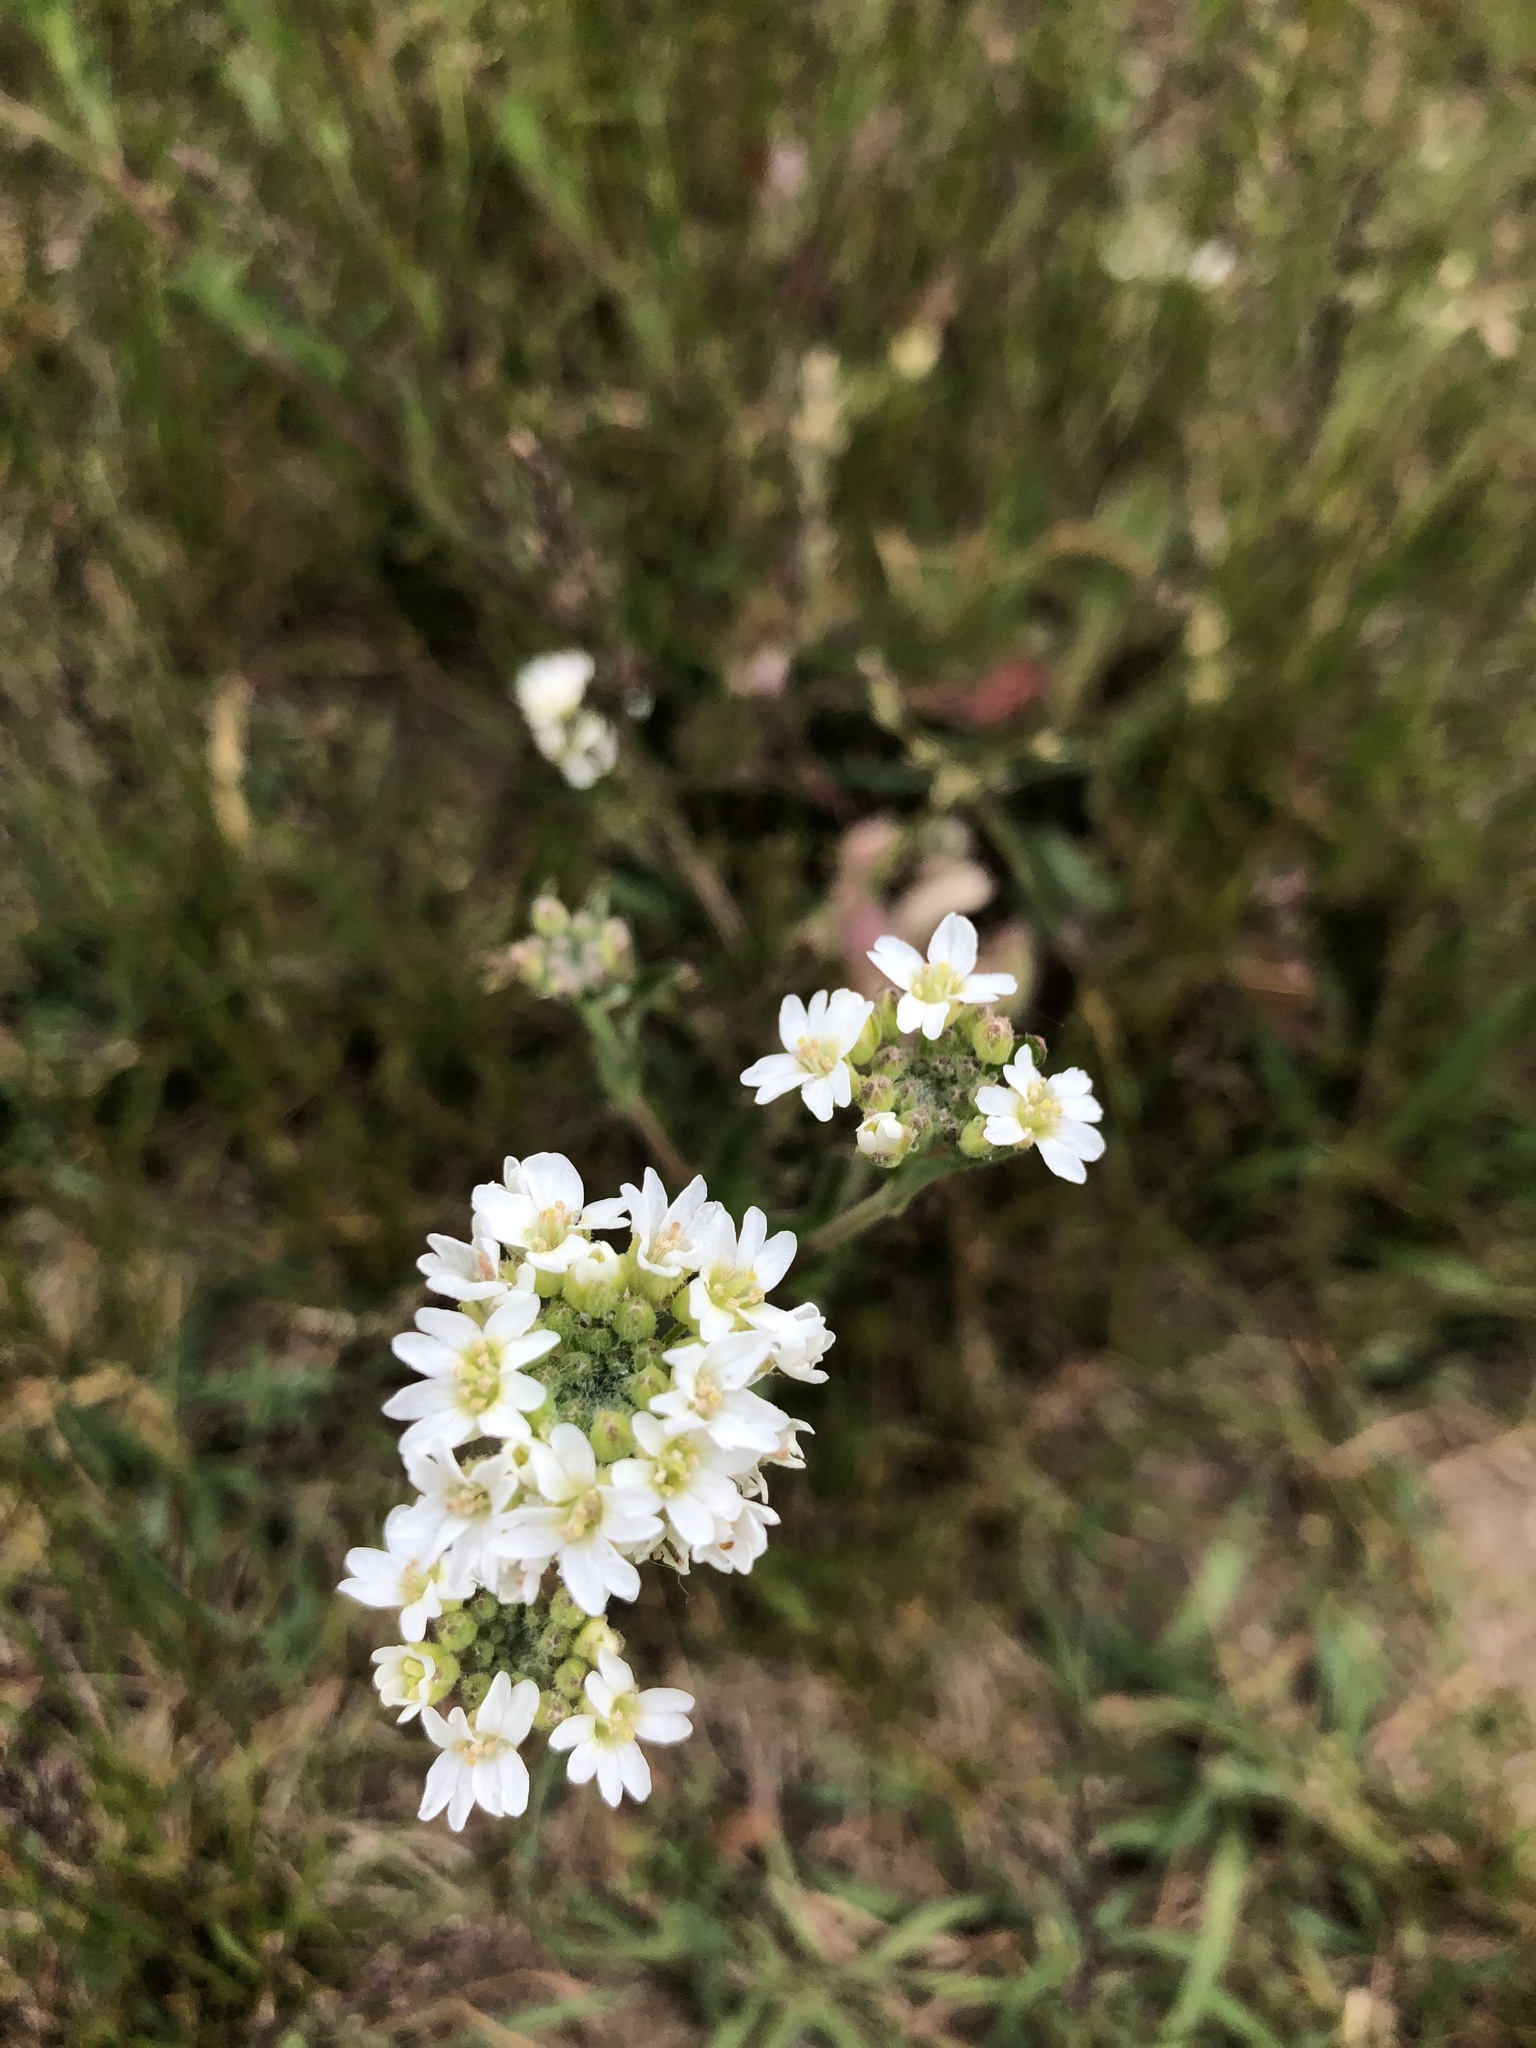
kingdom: Plantae
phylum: Tracheophyta
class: Magnoliopsida
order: Brassicales
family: Brassicaceae
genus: Berteroa
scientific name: Berteroa incana
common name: Hoary alison
